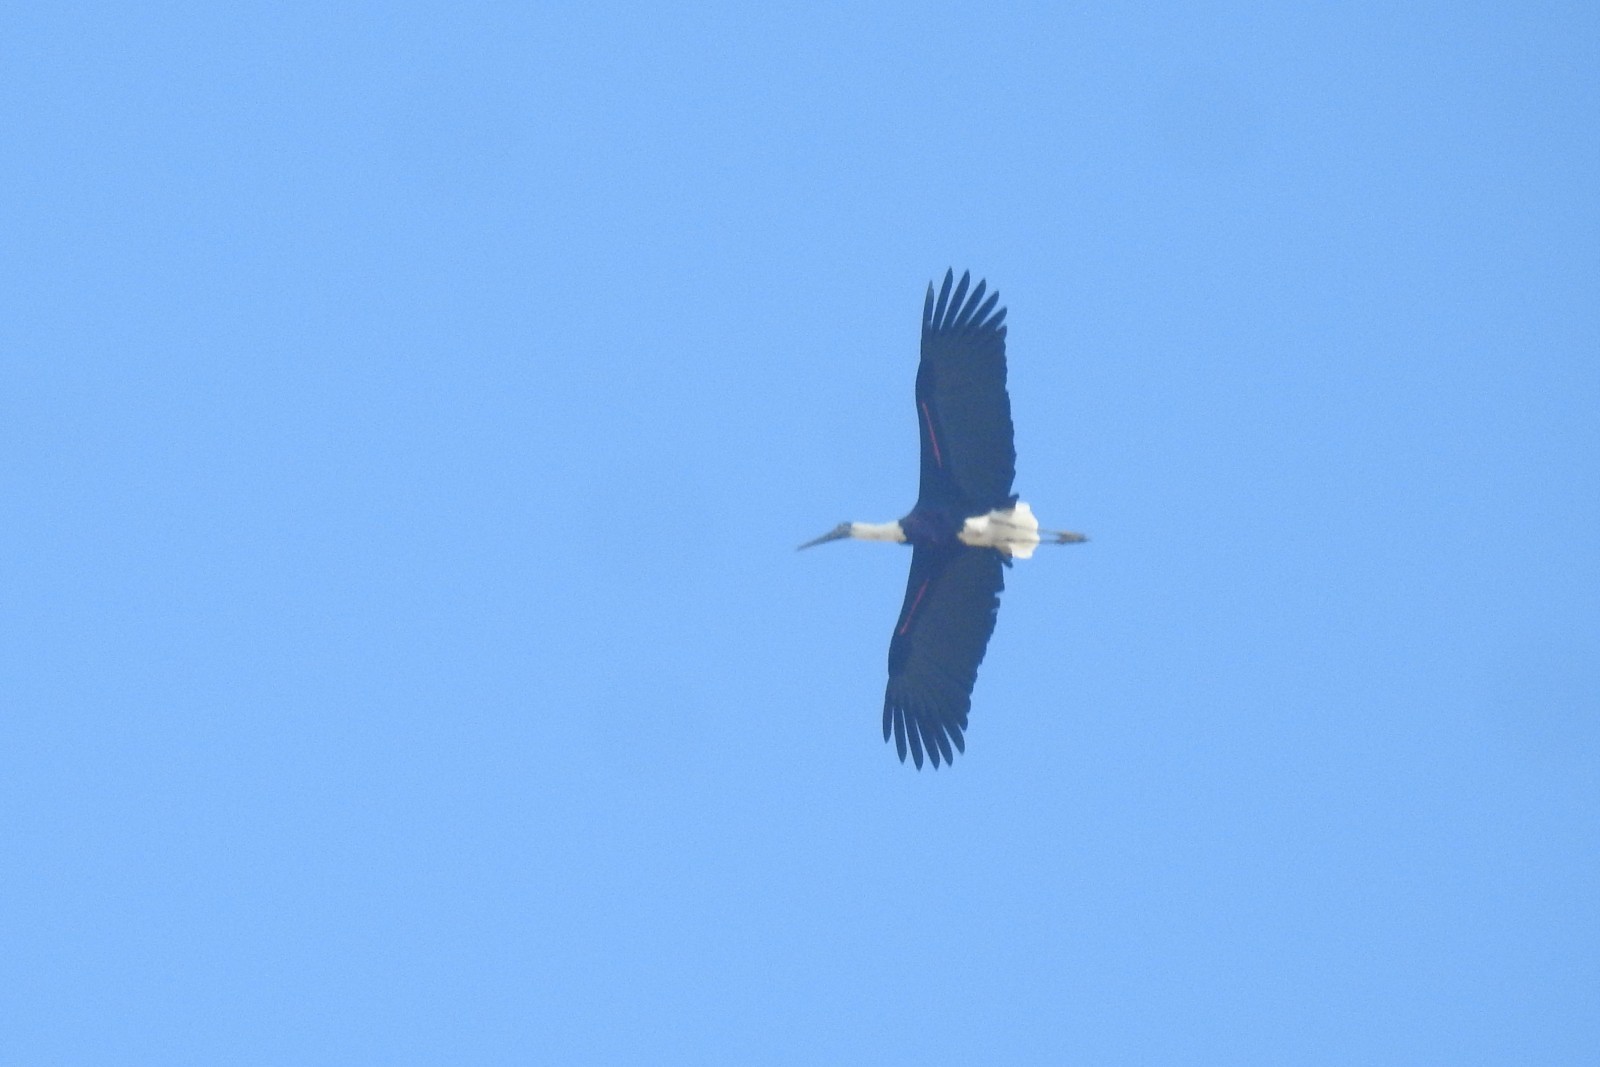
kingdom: Animalia
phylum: Chordata
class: Aves
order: Ciconiiformes
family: Ciconiidae
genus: Ciconia
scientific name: Ciconia episcopus
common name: Woolly-necked stork
